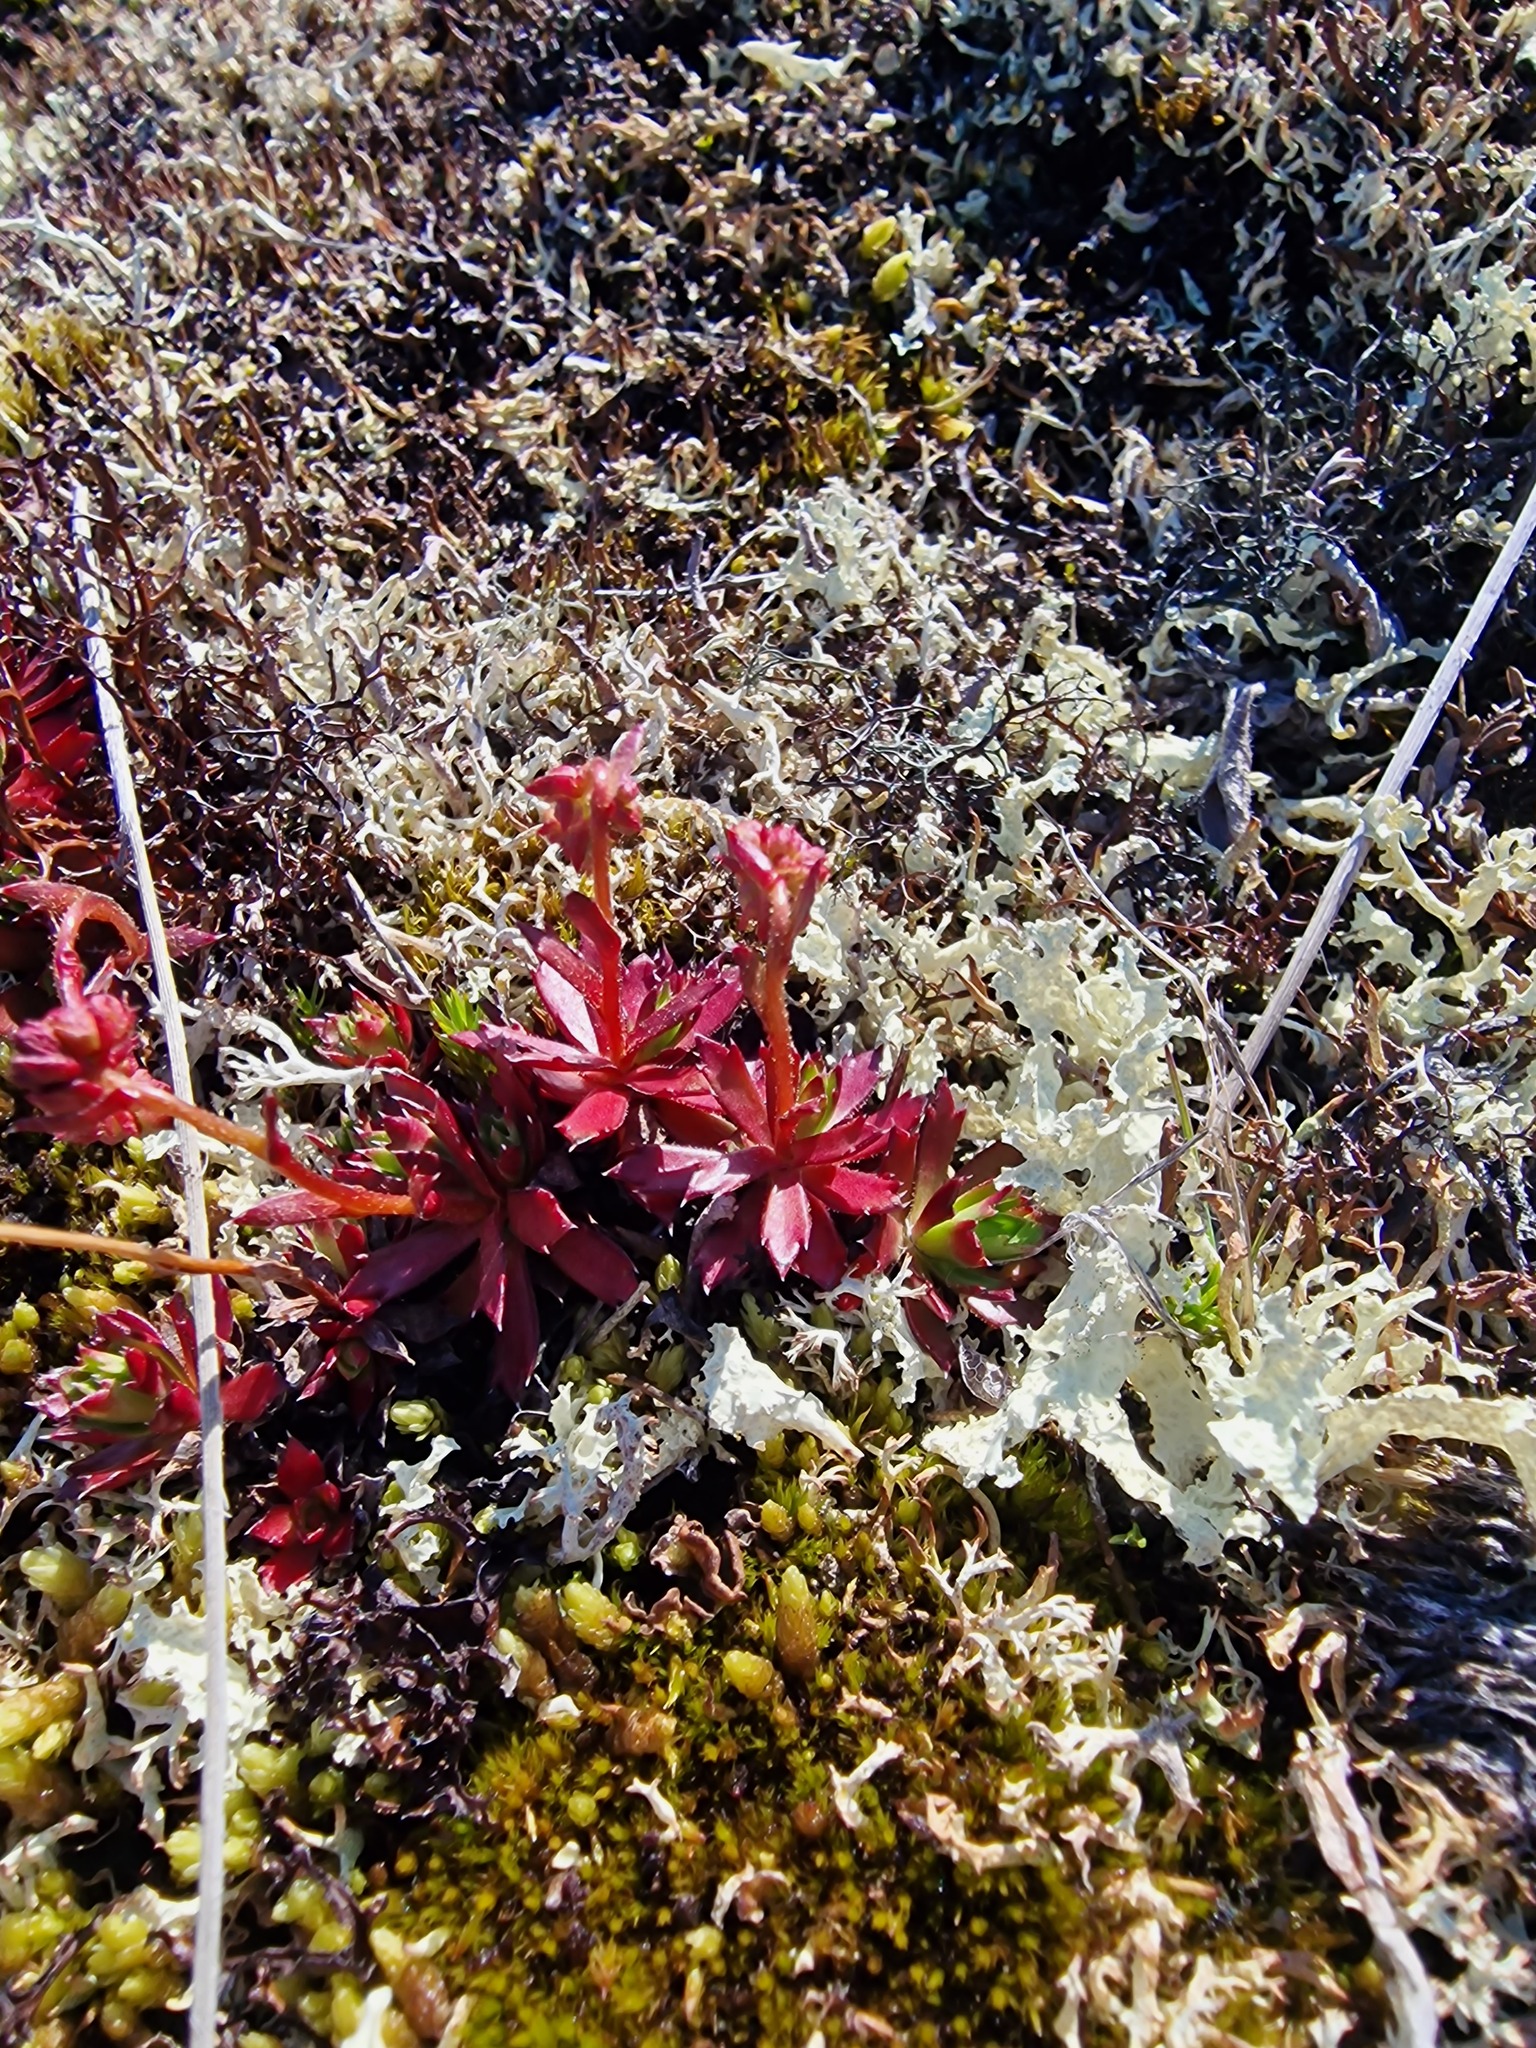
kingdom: Plantae
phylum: Tracheophyta
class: Magnoliopsida
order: Saxifragales
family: Saxifragaceae
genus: Saxifraga
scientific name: Saxifraga tricuspidata
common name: Prickly saxifrage
